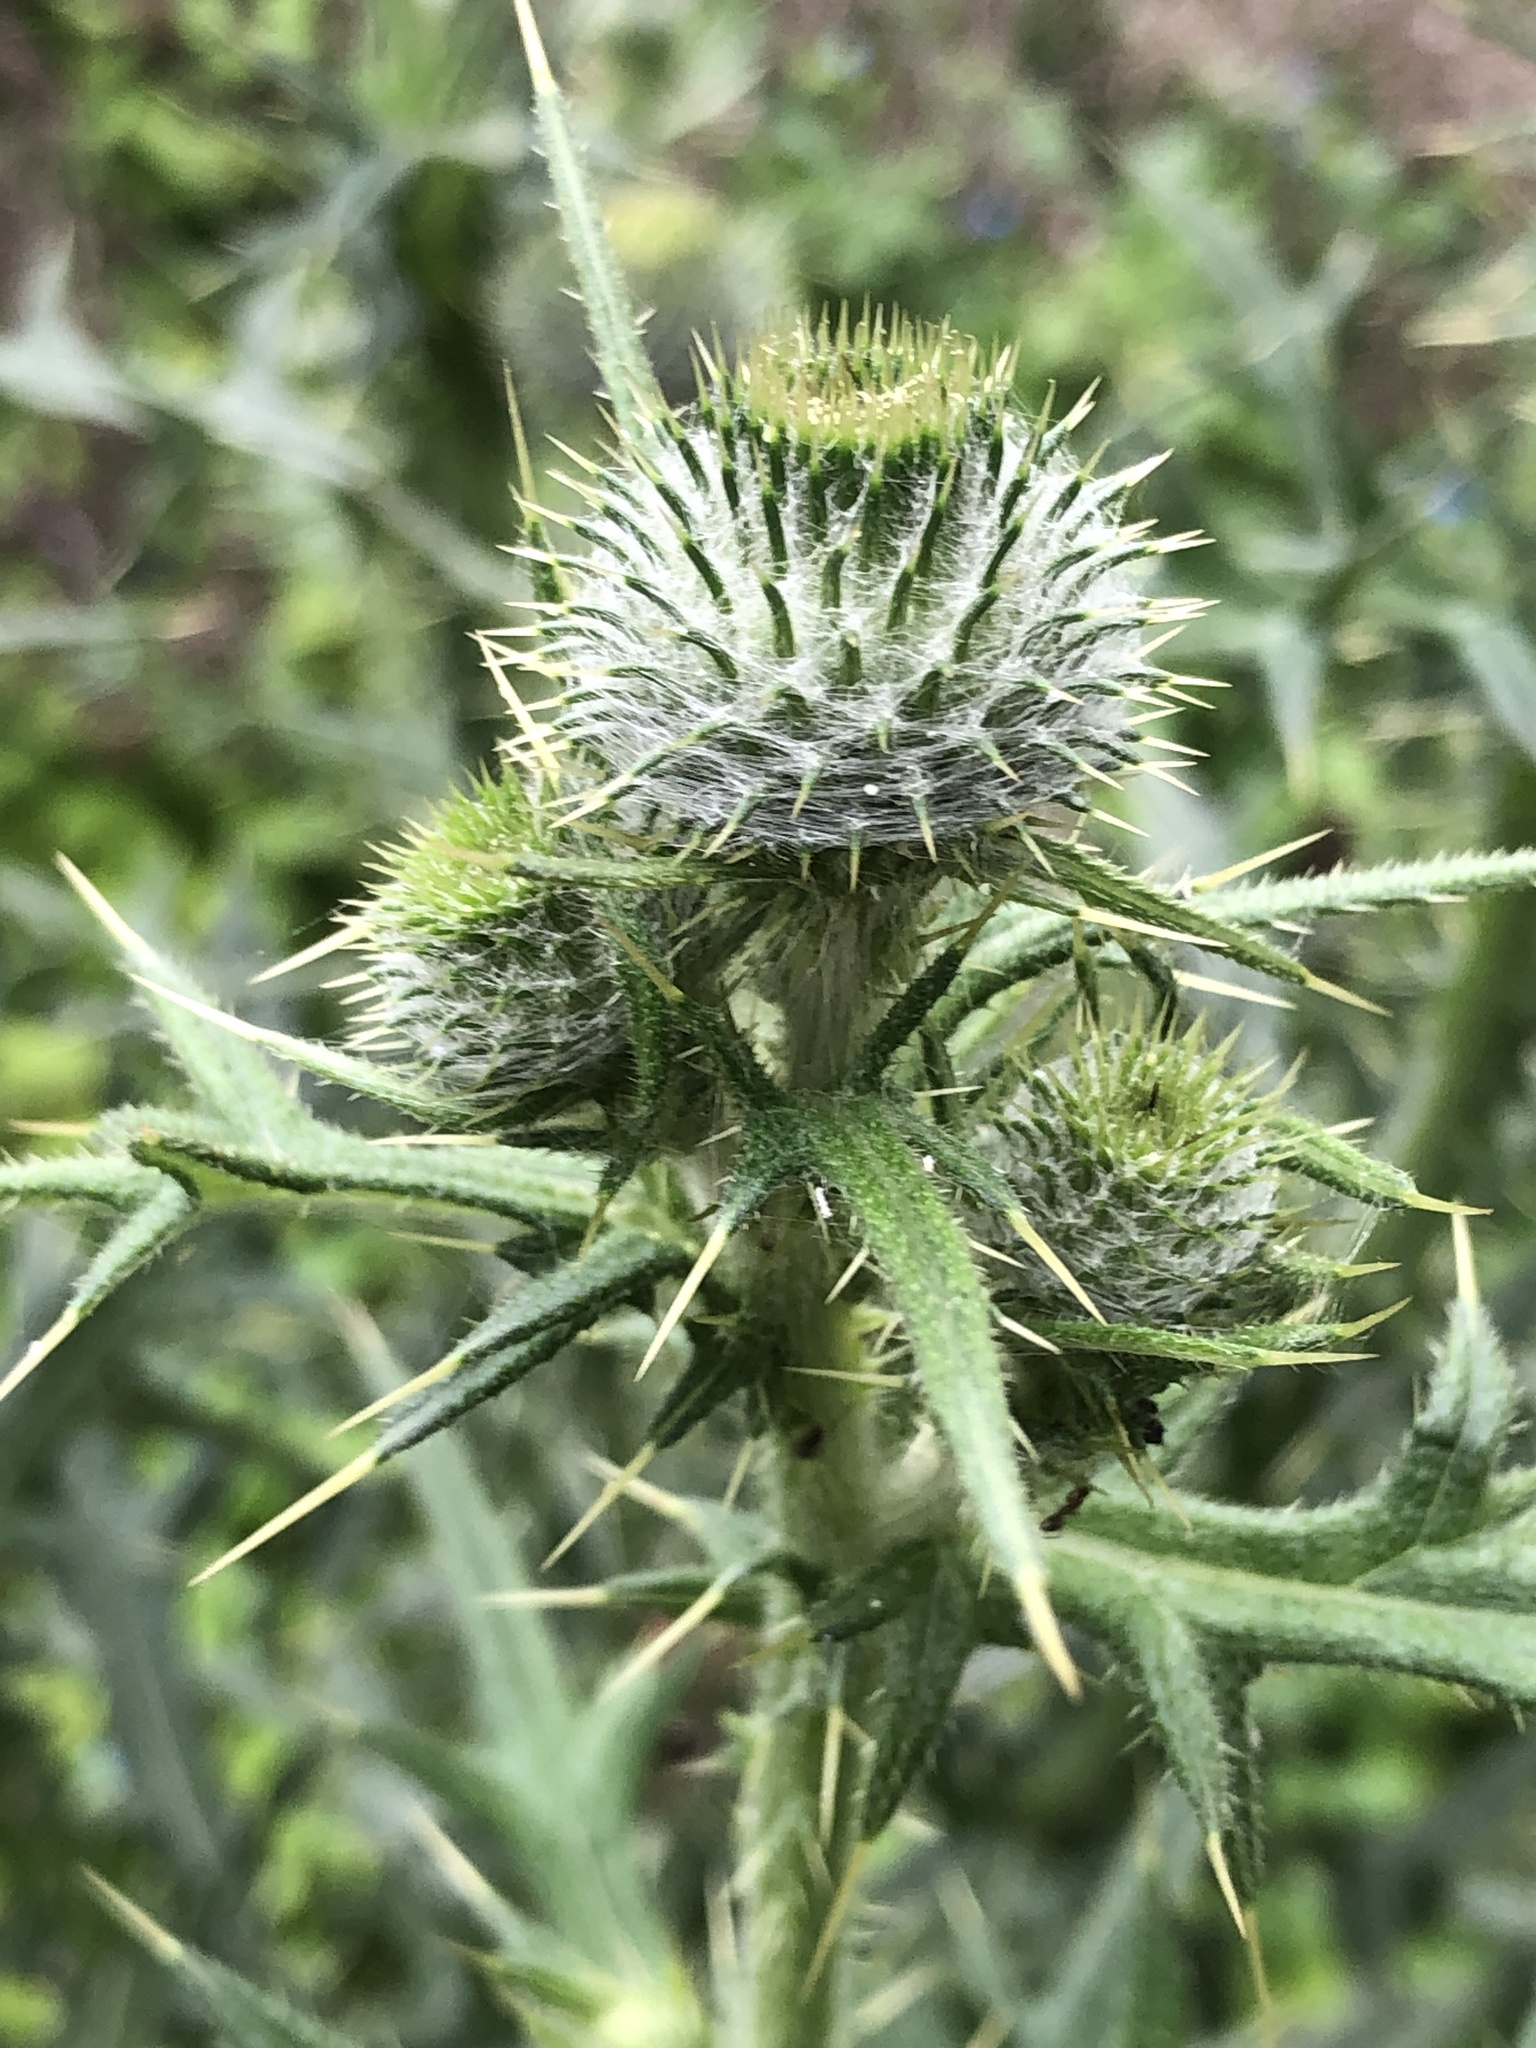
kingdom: Plantae
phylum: Tracheophyta
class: Magnoliopsida
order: Asterales
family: Asteraceae
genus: Cirsium
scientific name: Cirsium vulgare
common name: Bull thistle
